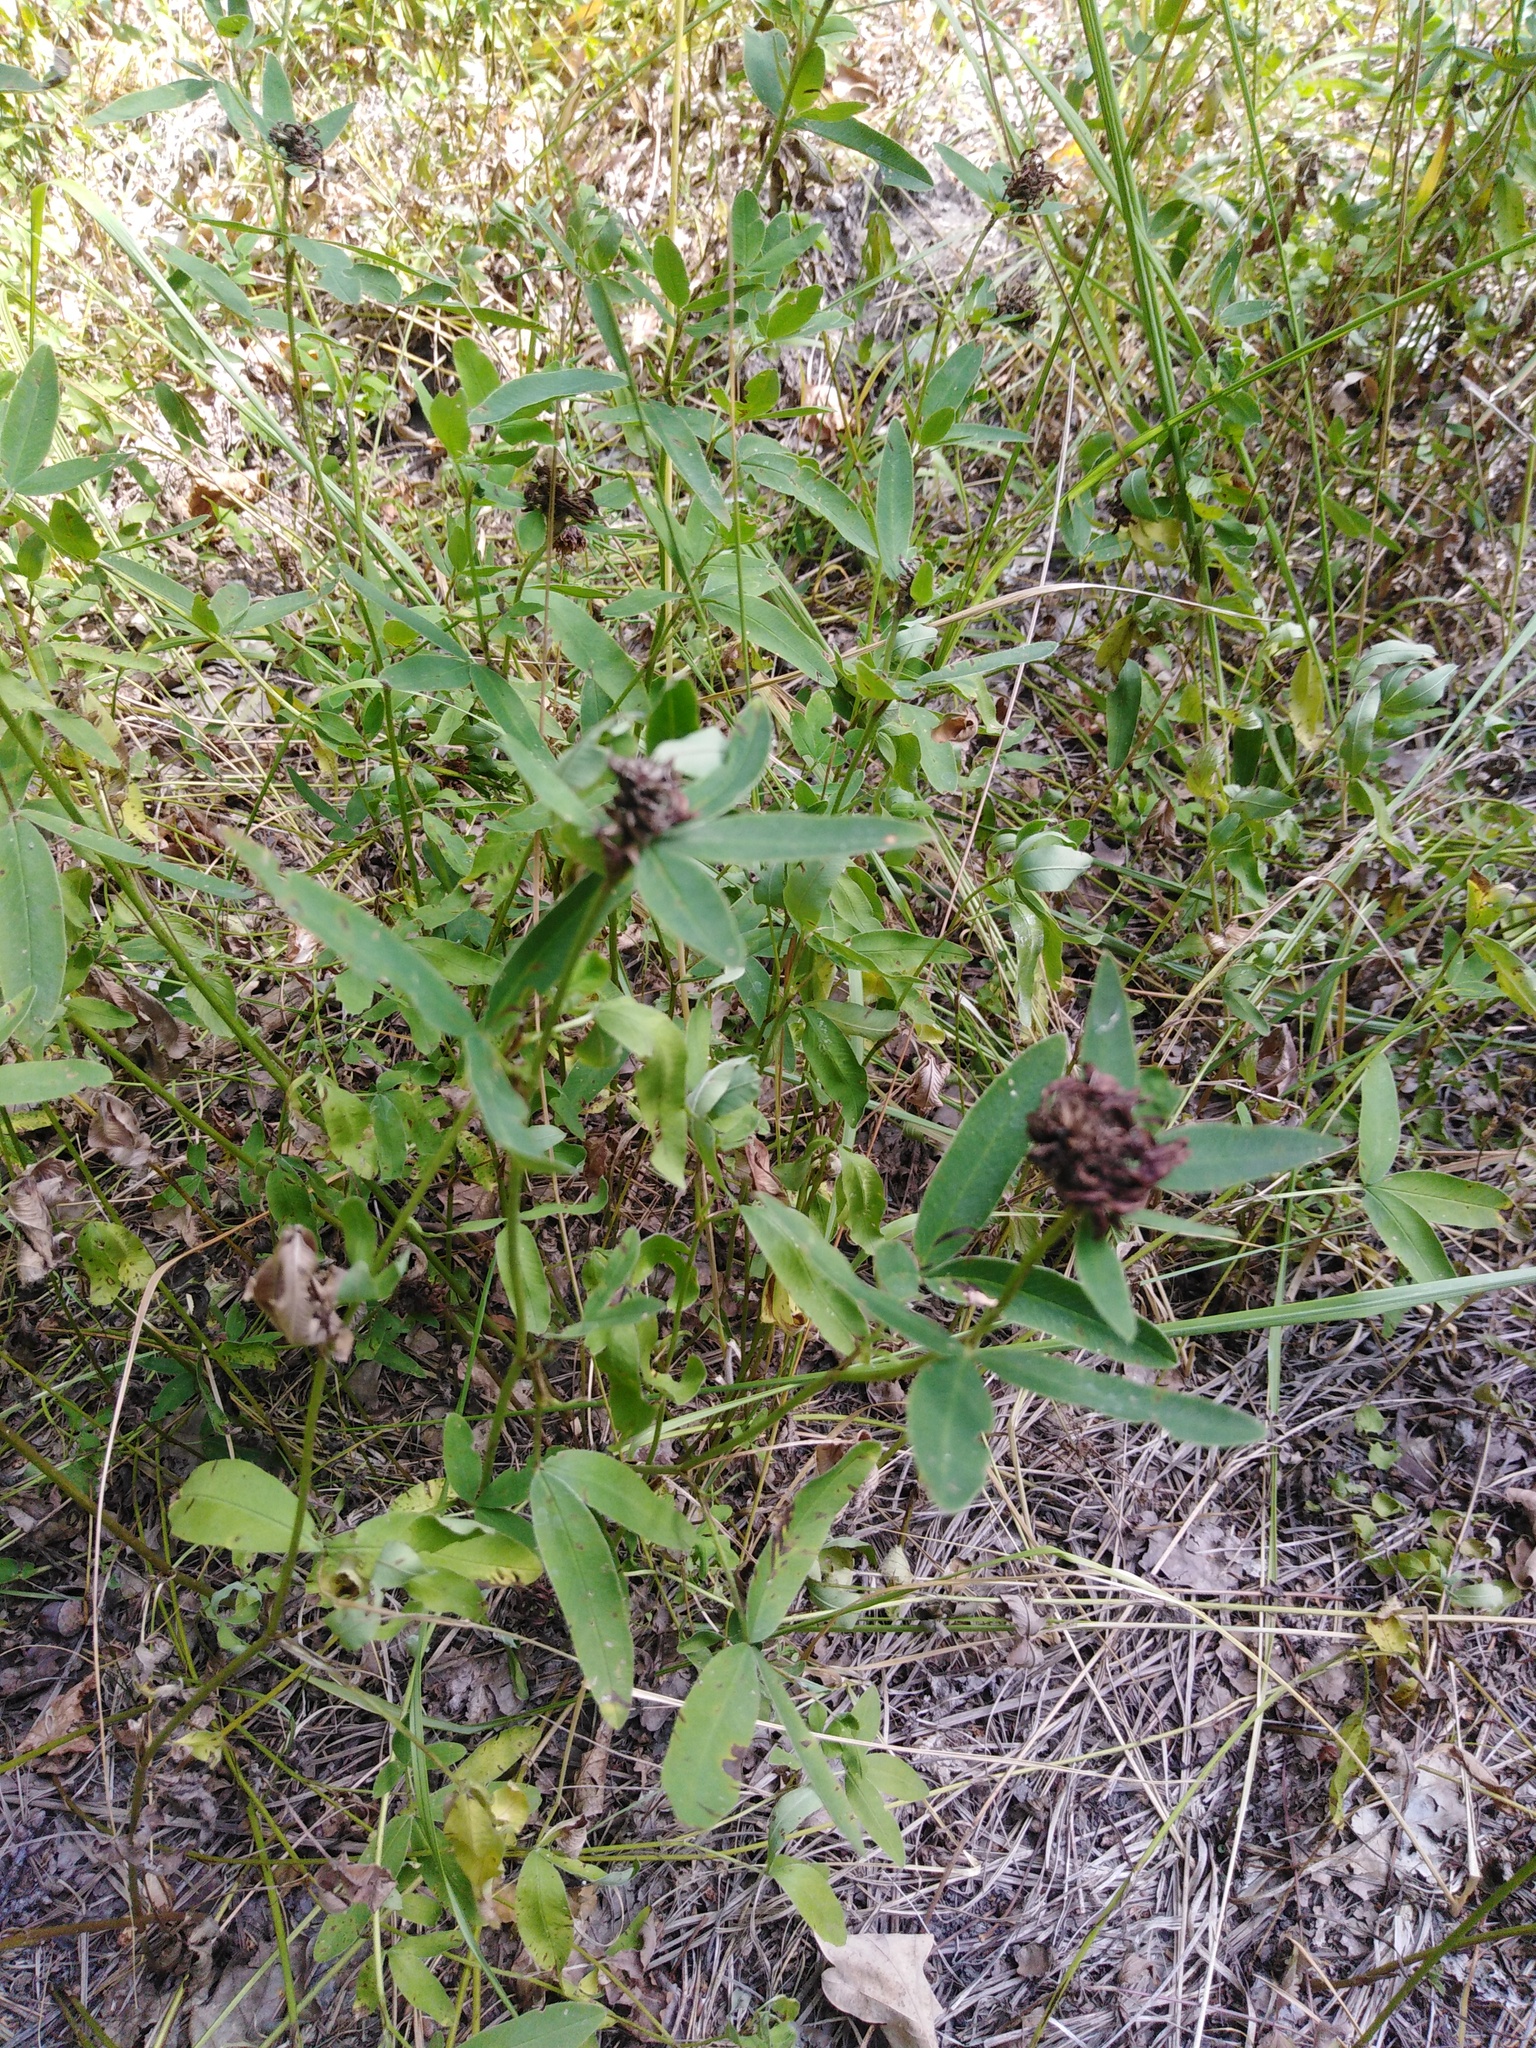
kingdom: Plantae
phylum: Tracheophyta
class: Magnoliopsida
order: Fabales
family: Fabaceae
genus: Trifolium
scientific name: Trifolium medium
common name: Zigzag clover
